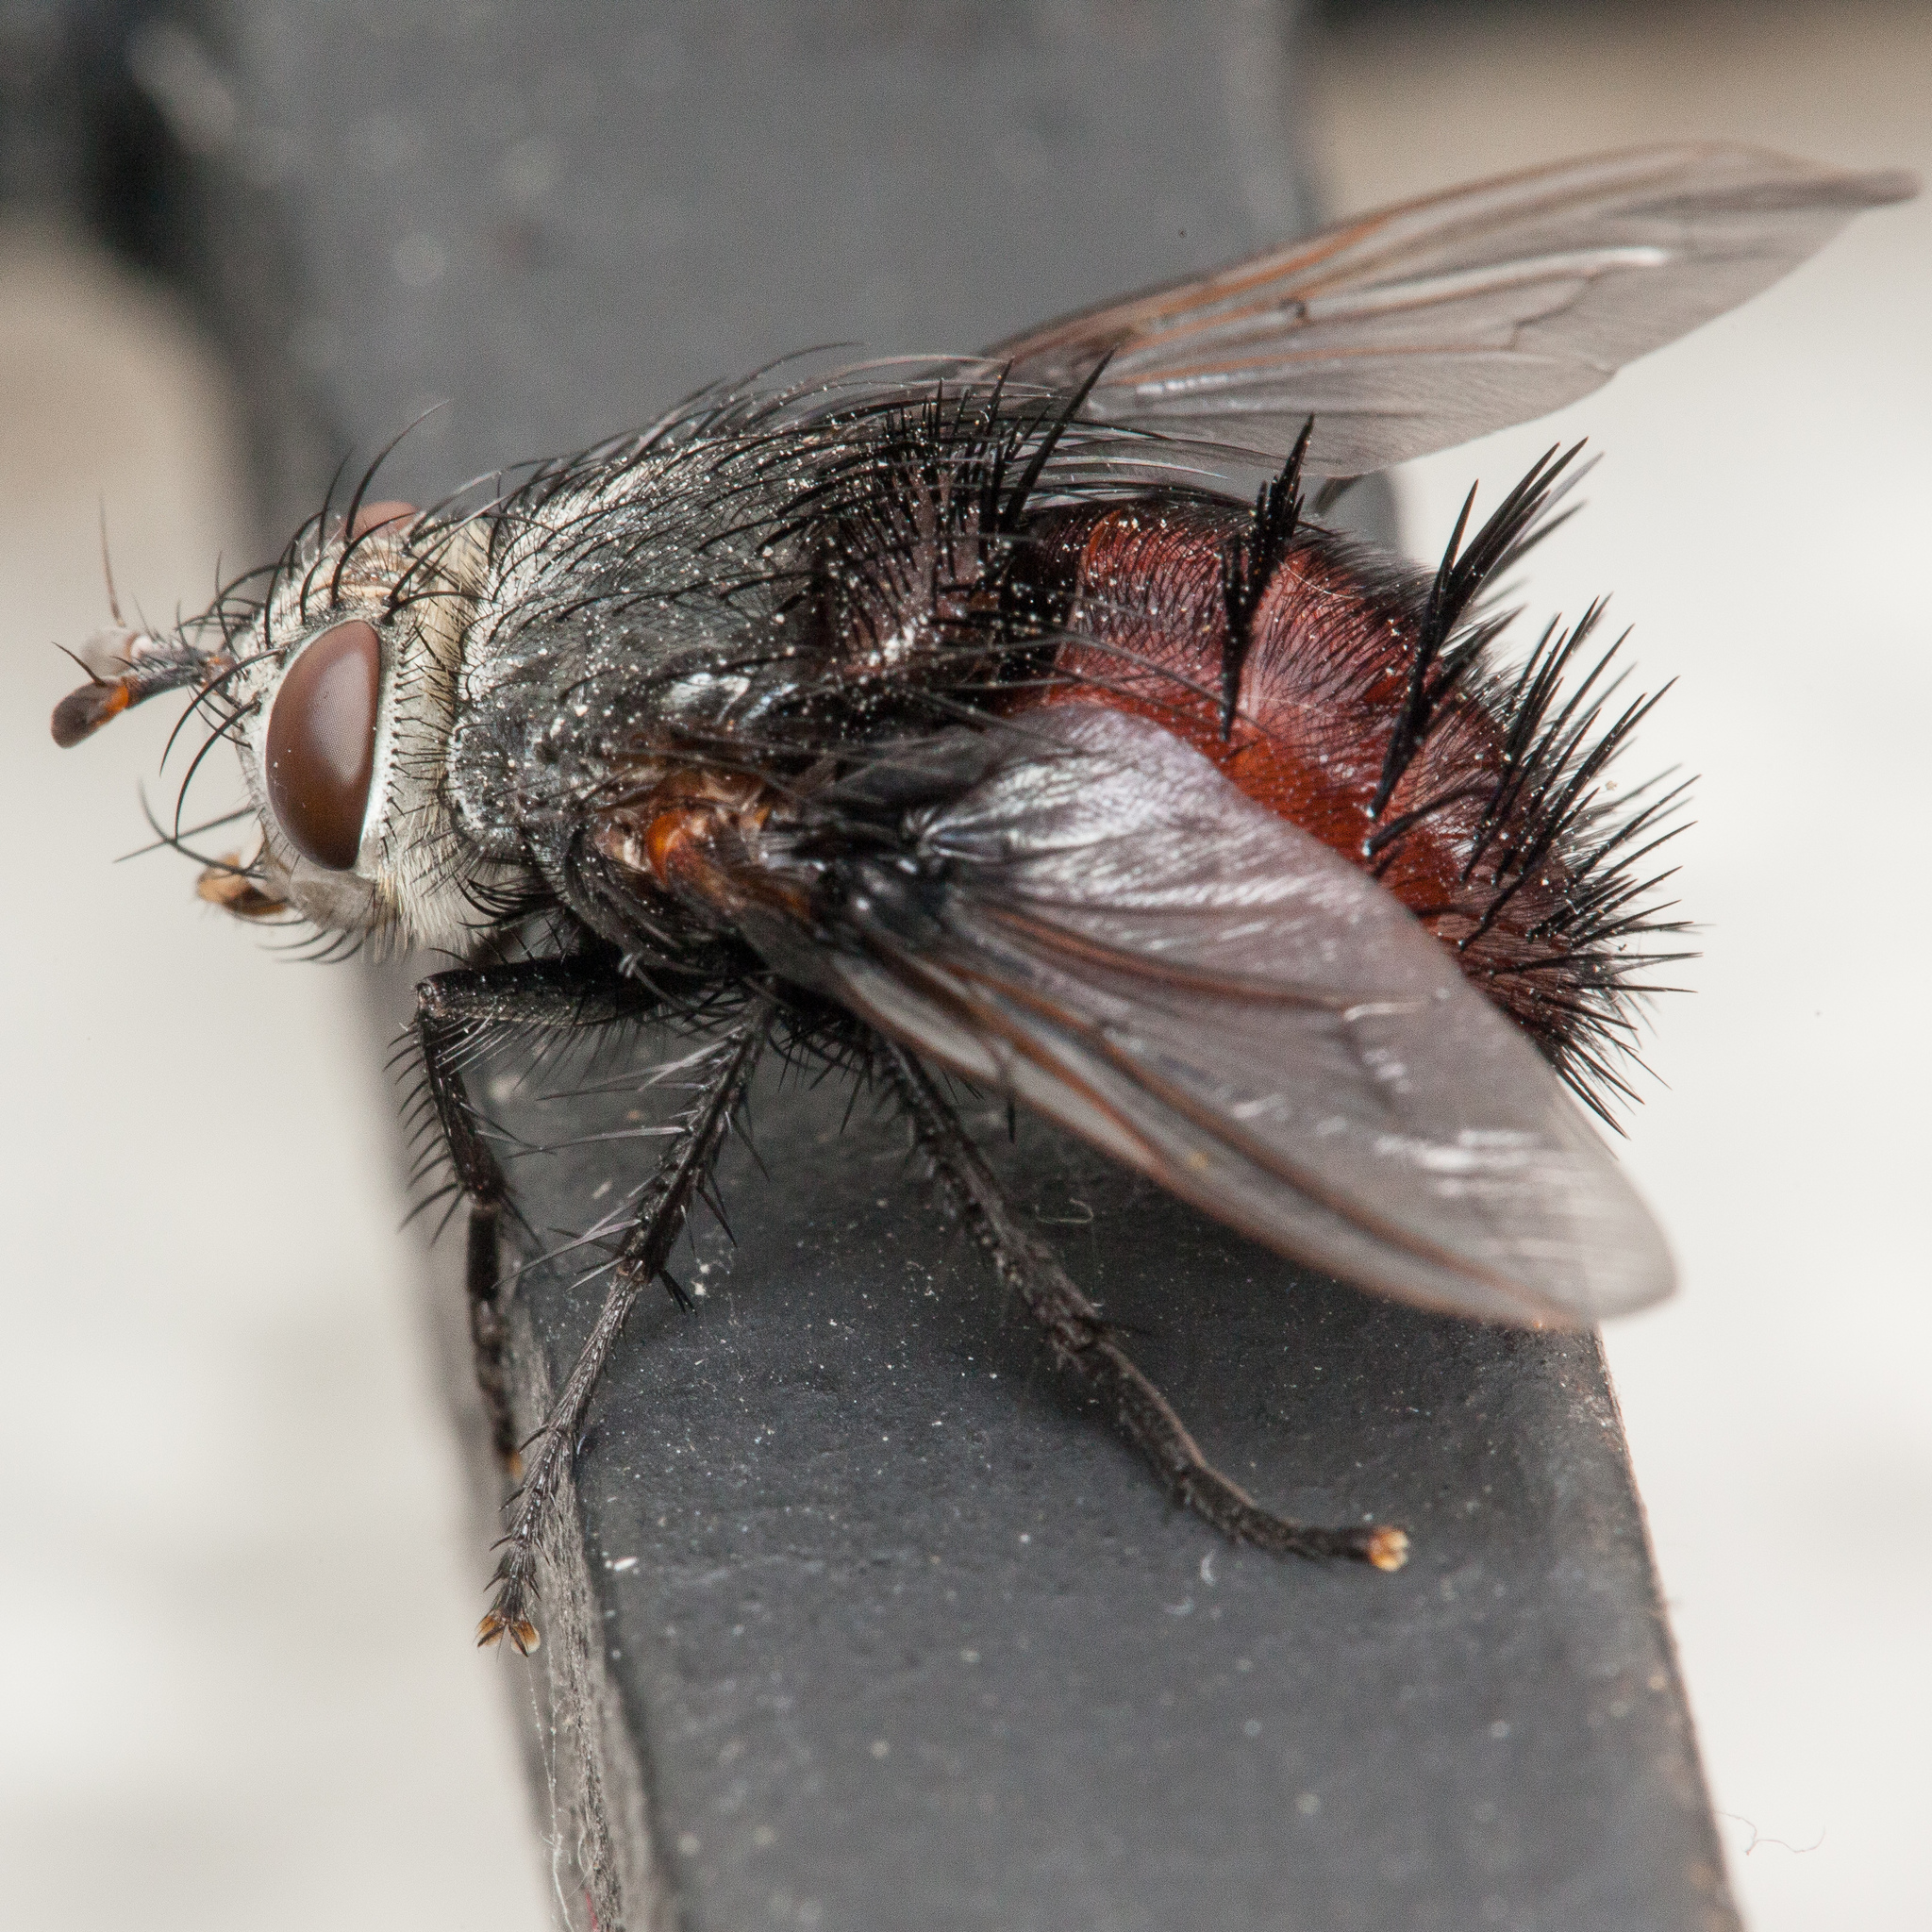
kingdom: Animalia
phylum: Arthropoda
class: Insecta
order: Diptera
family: Tachinidae
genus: Juriniopsis
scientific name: Juriniopsis adusta
